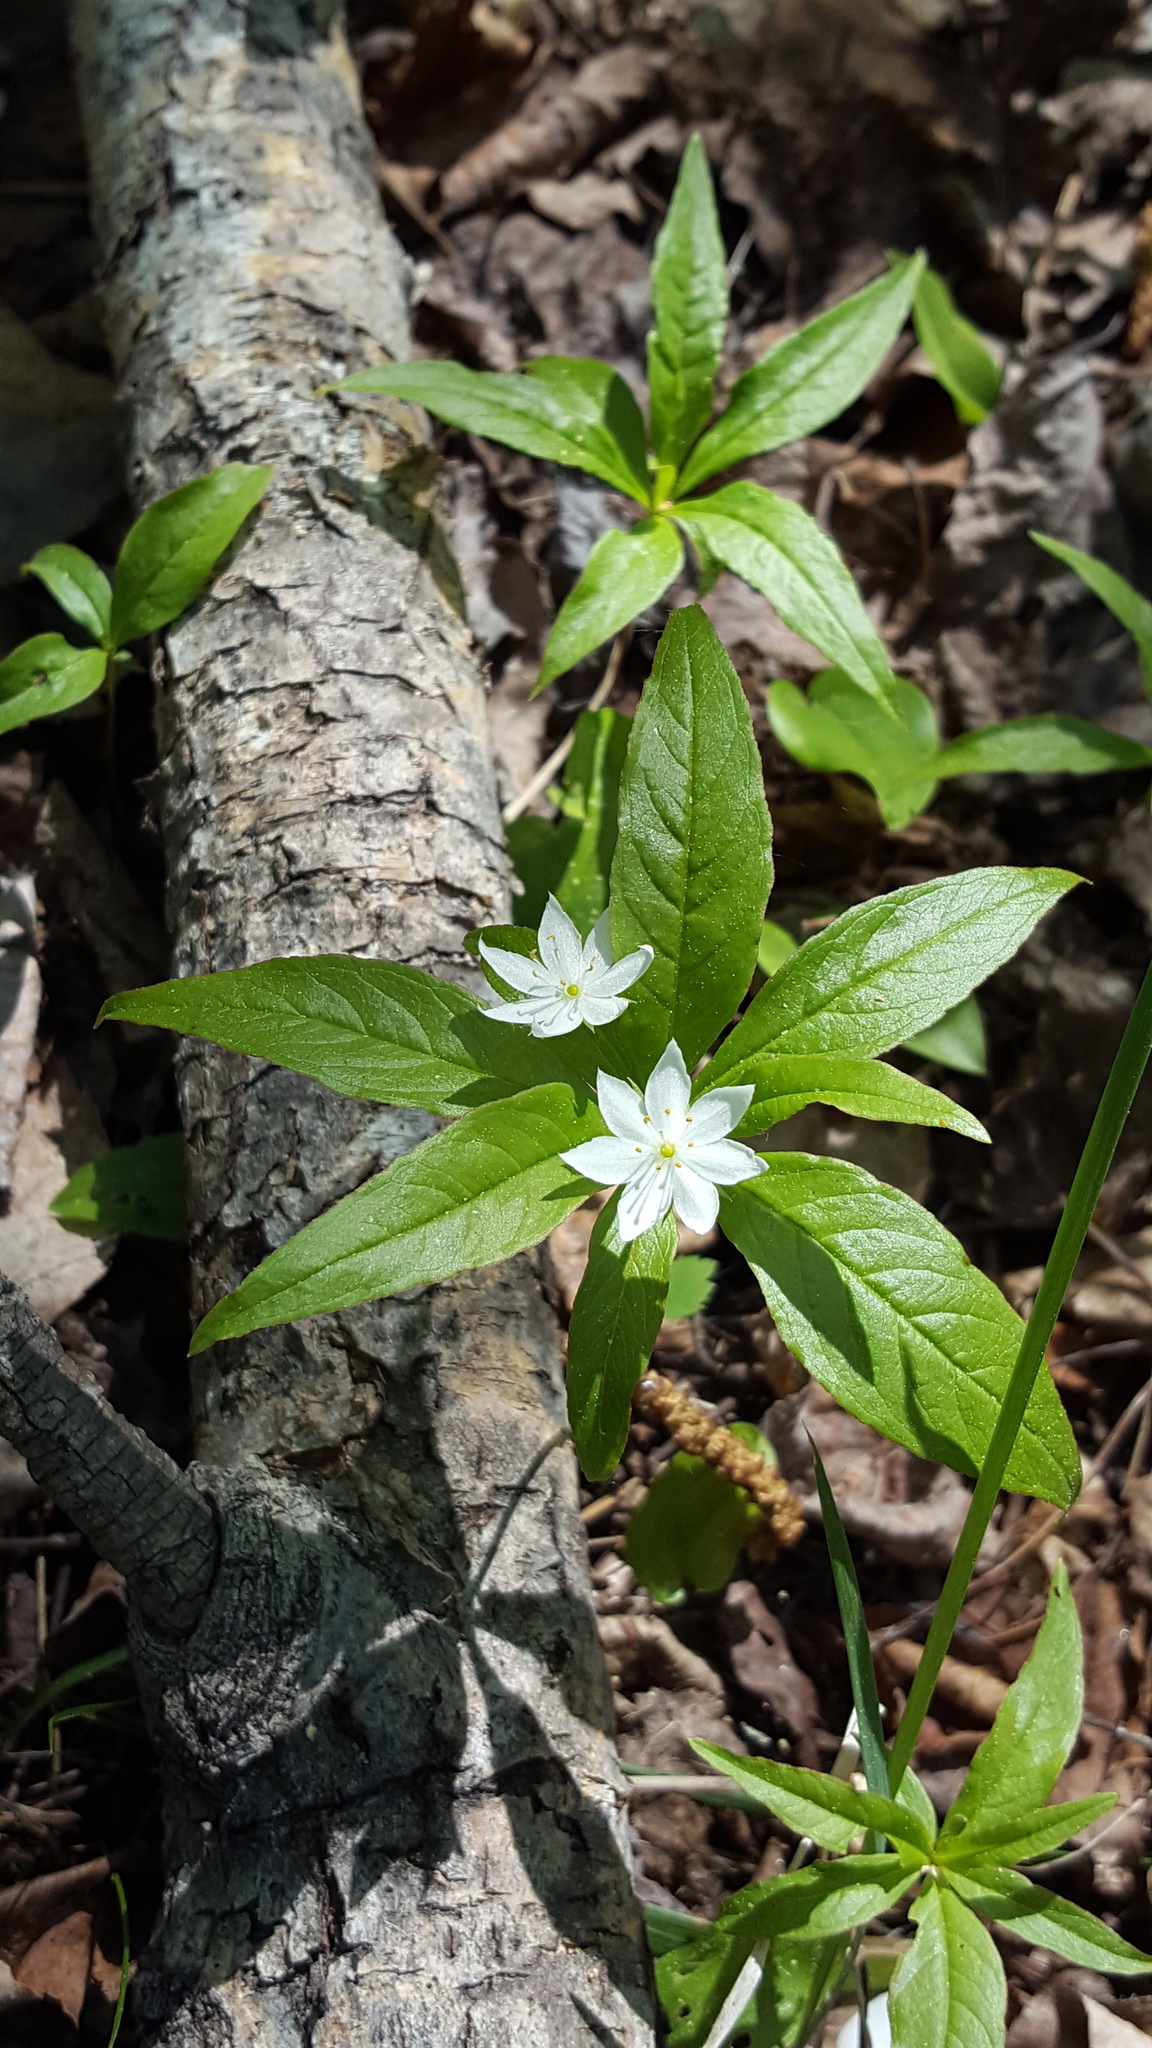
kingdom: Plantae
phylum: Tracheophyta
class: Magnoliopsida
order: Ericales
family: Primulaceae
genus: Lysimachia
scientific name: Lysimachia borealis
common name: American starflower
